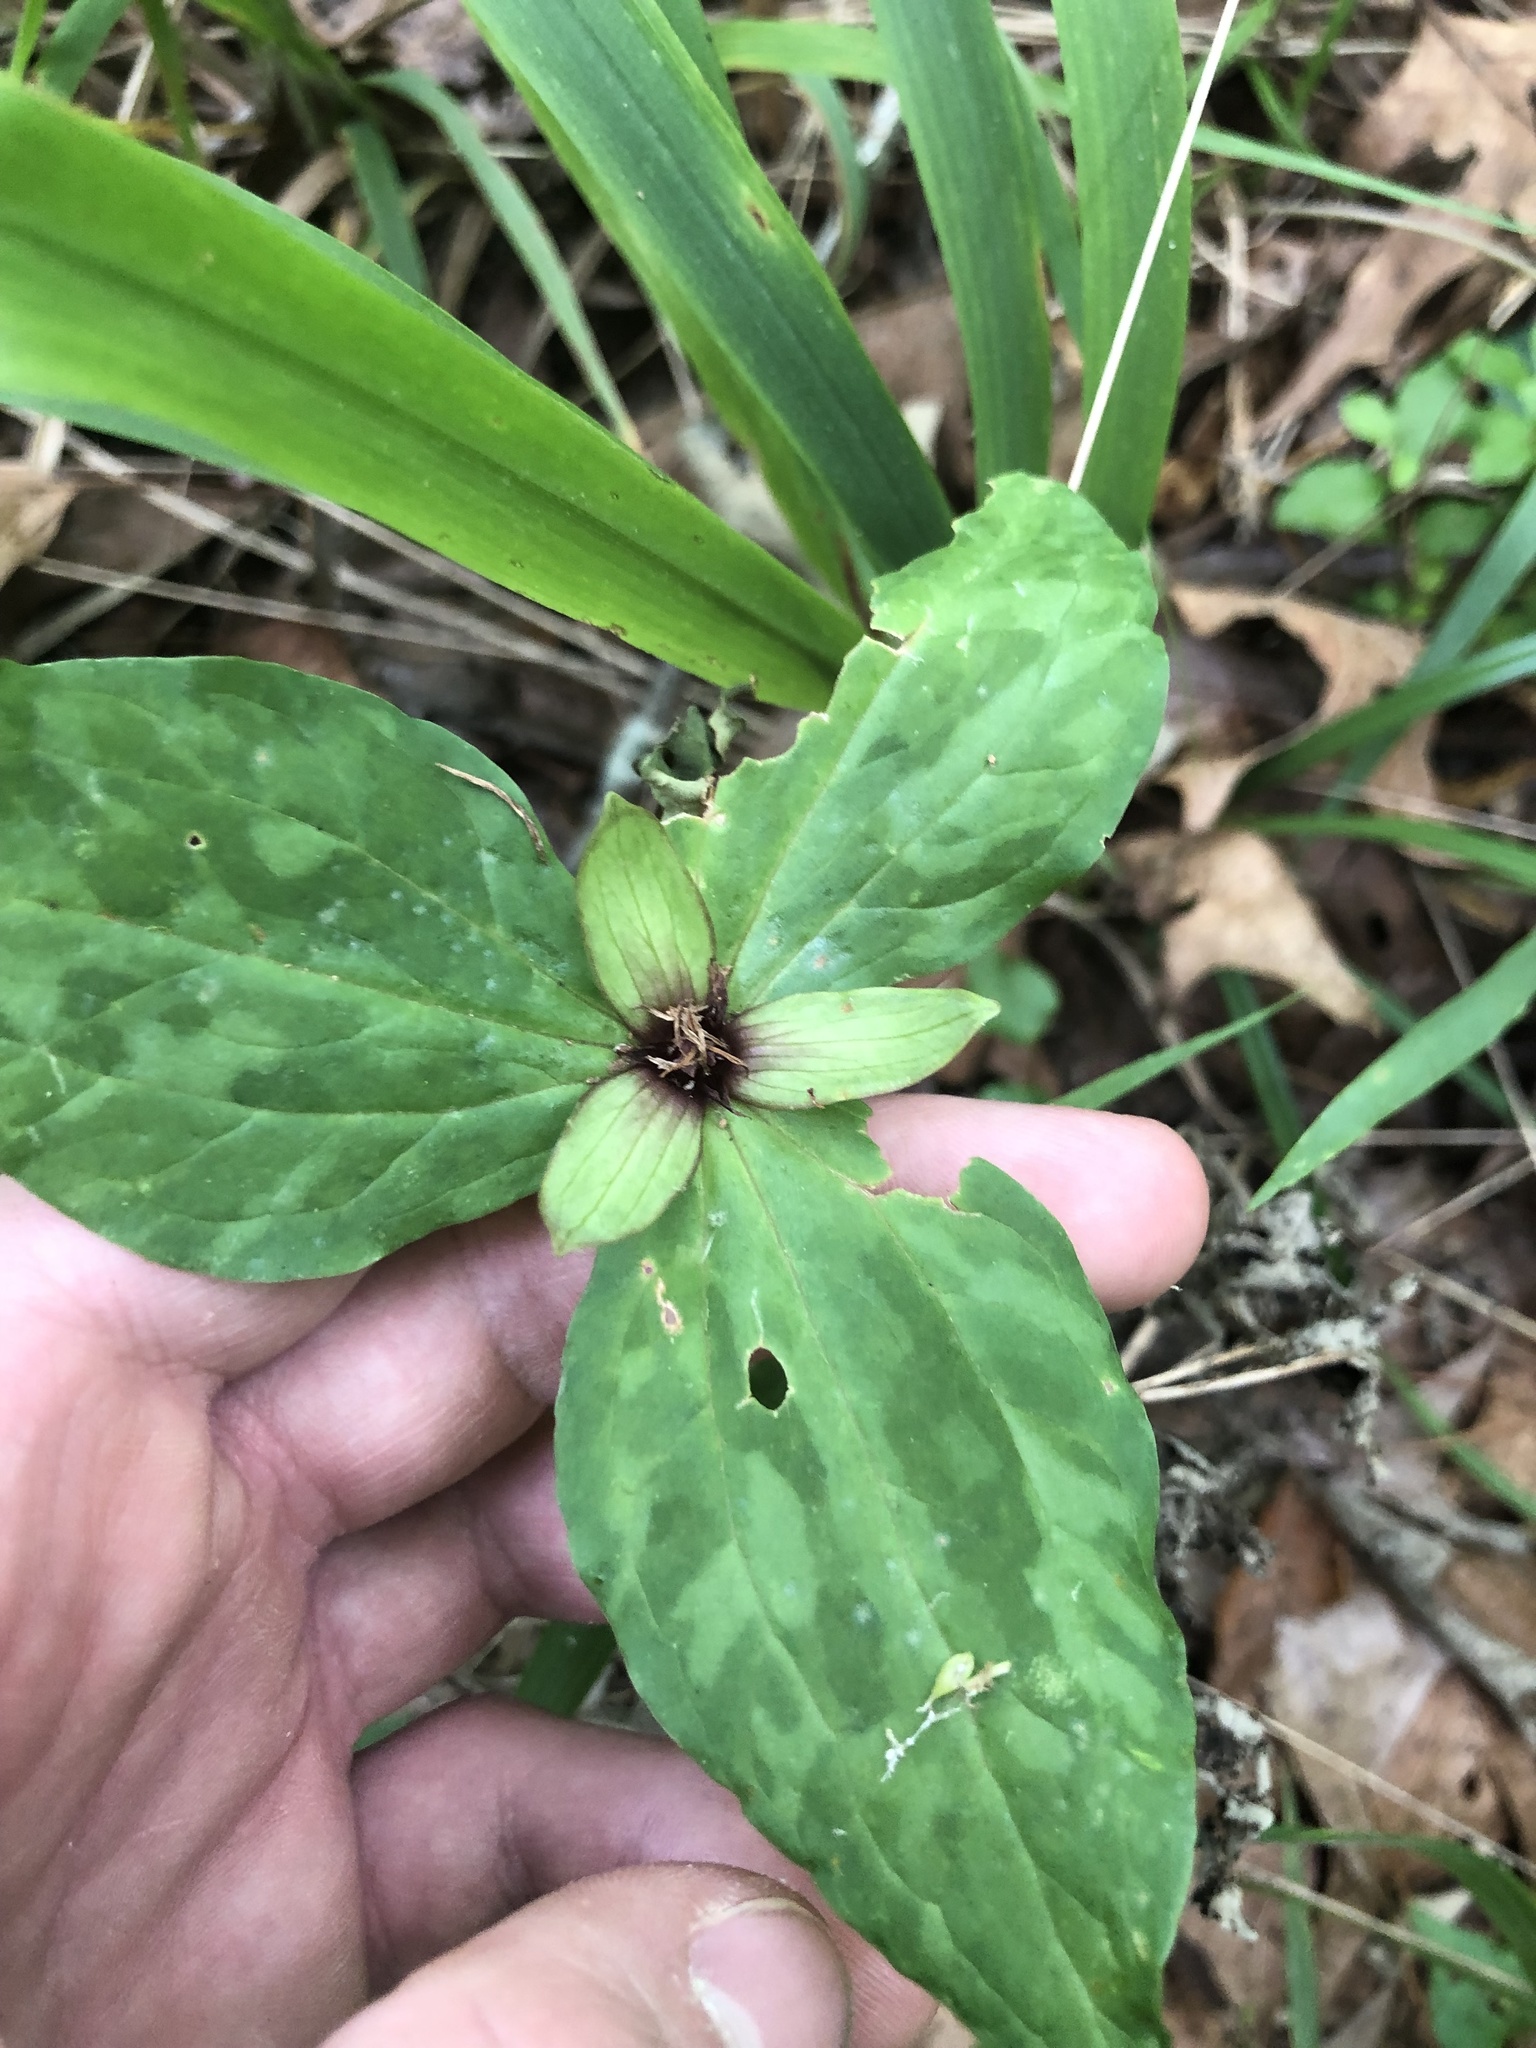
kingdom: Plantae
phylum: Tracheophyta
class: Liliopsida
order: Liliales
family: Melanthiaceae
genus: Trillium
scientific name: Trillium stamineum
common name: Blue ridge wakerobin
